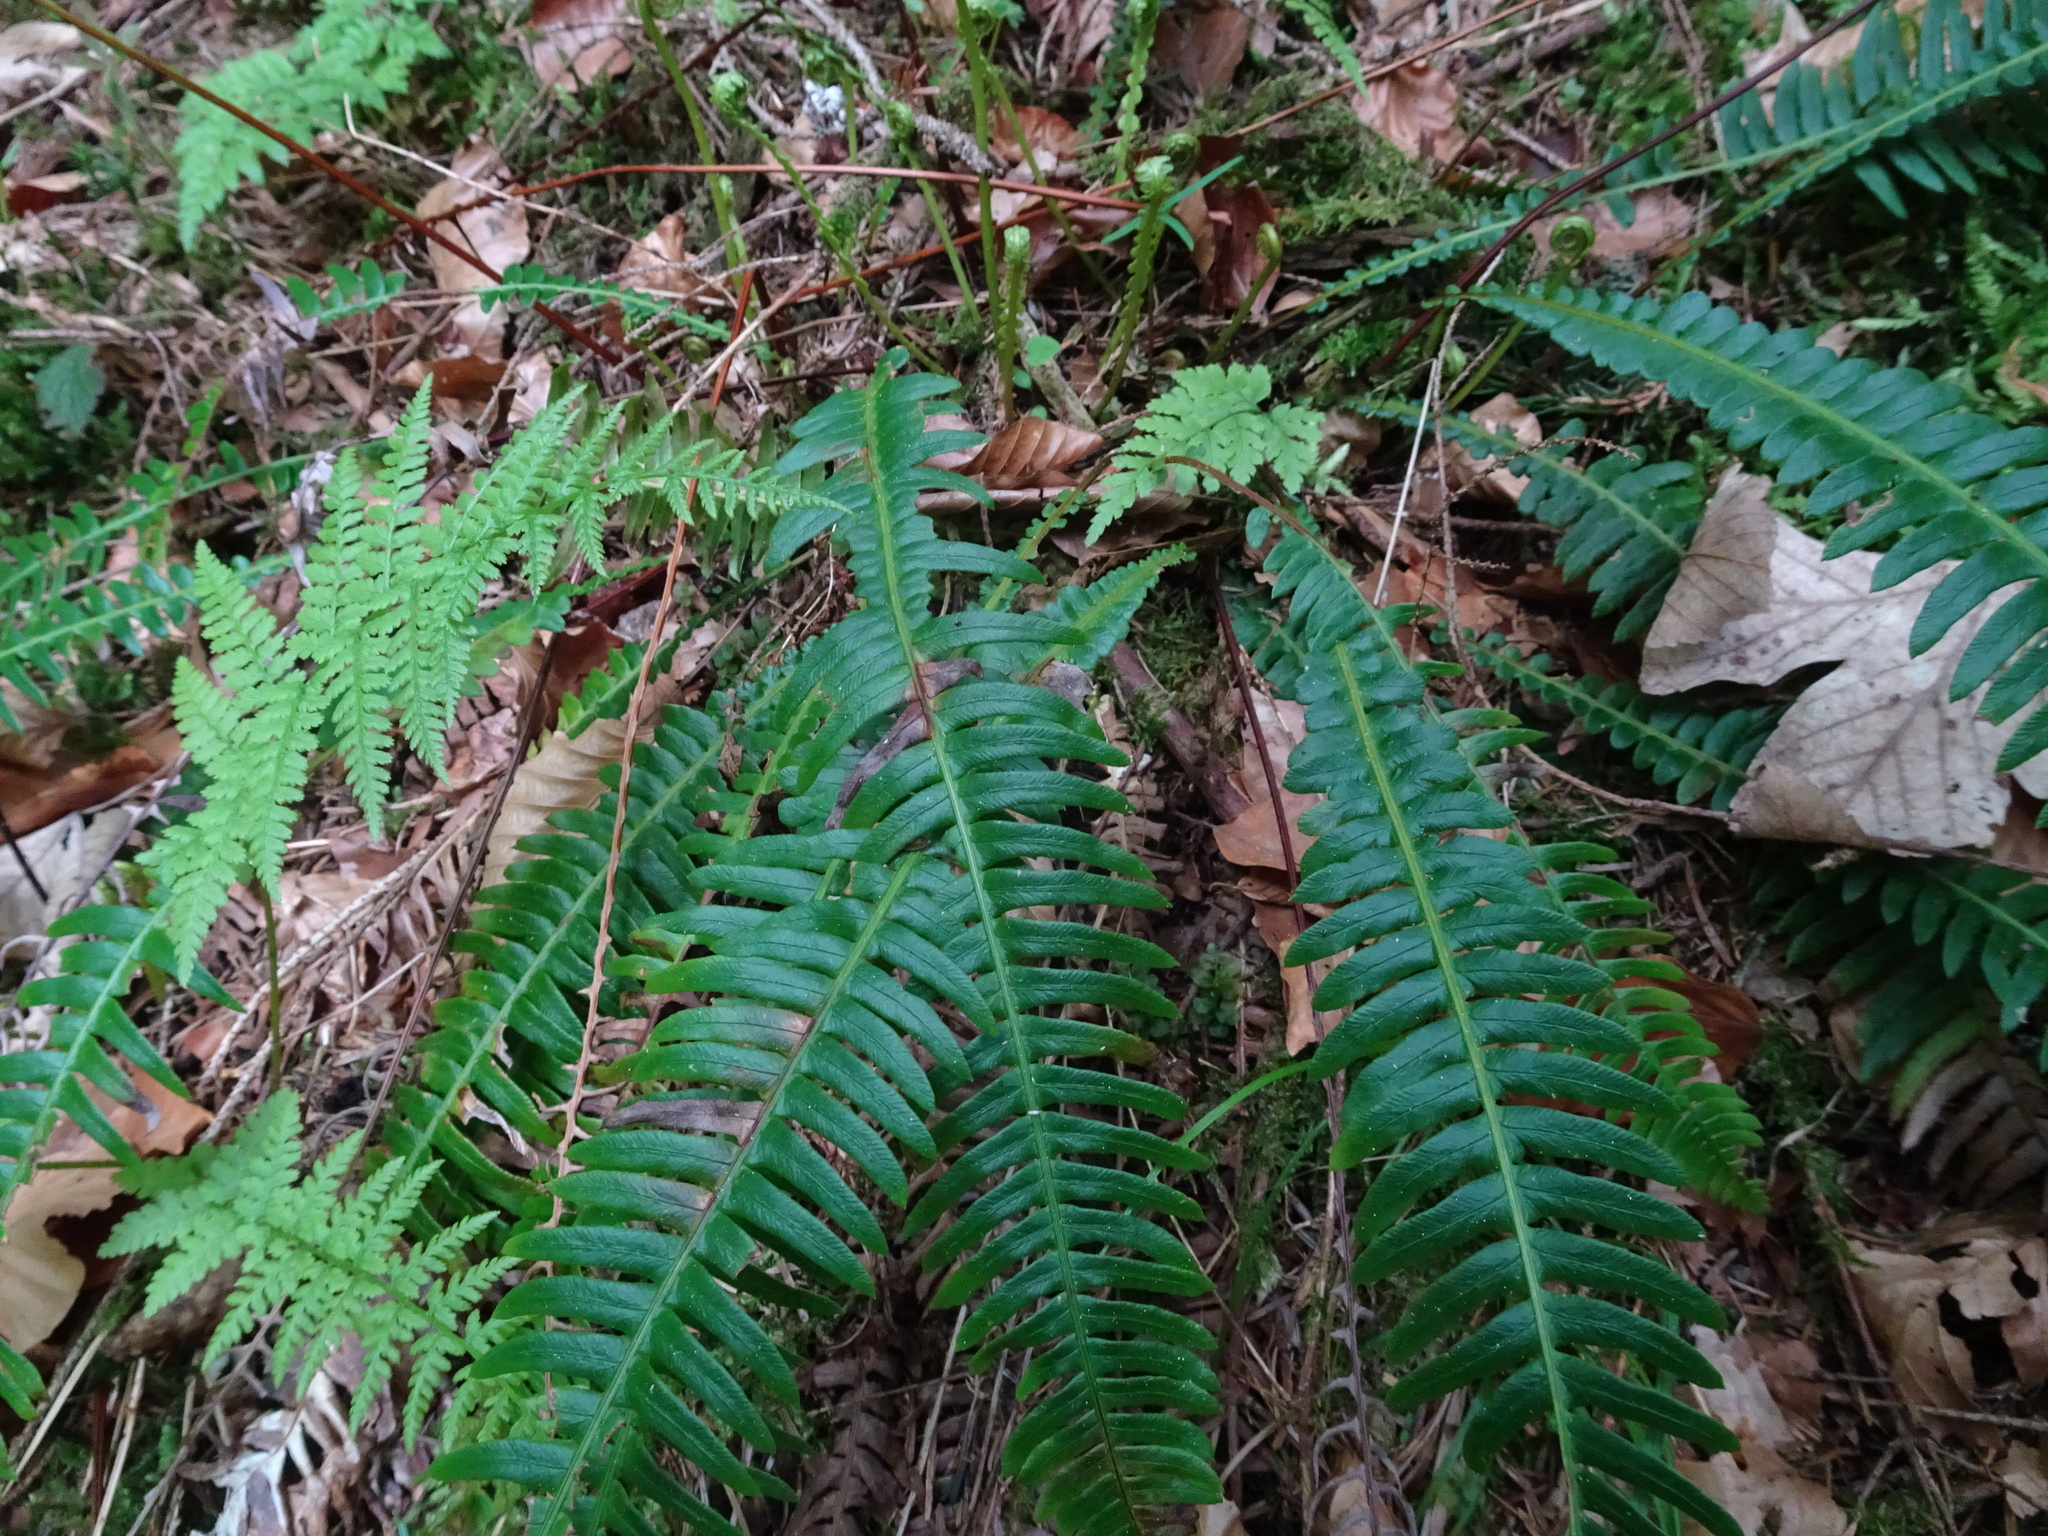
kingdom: Plantae
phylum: Tracheophyta
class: Polypodiopsida
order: Polypodiales
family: Blechnaceae
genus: Struthiopteris
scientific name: Struthiopteris spicant
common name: Deer fern
